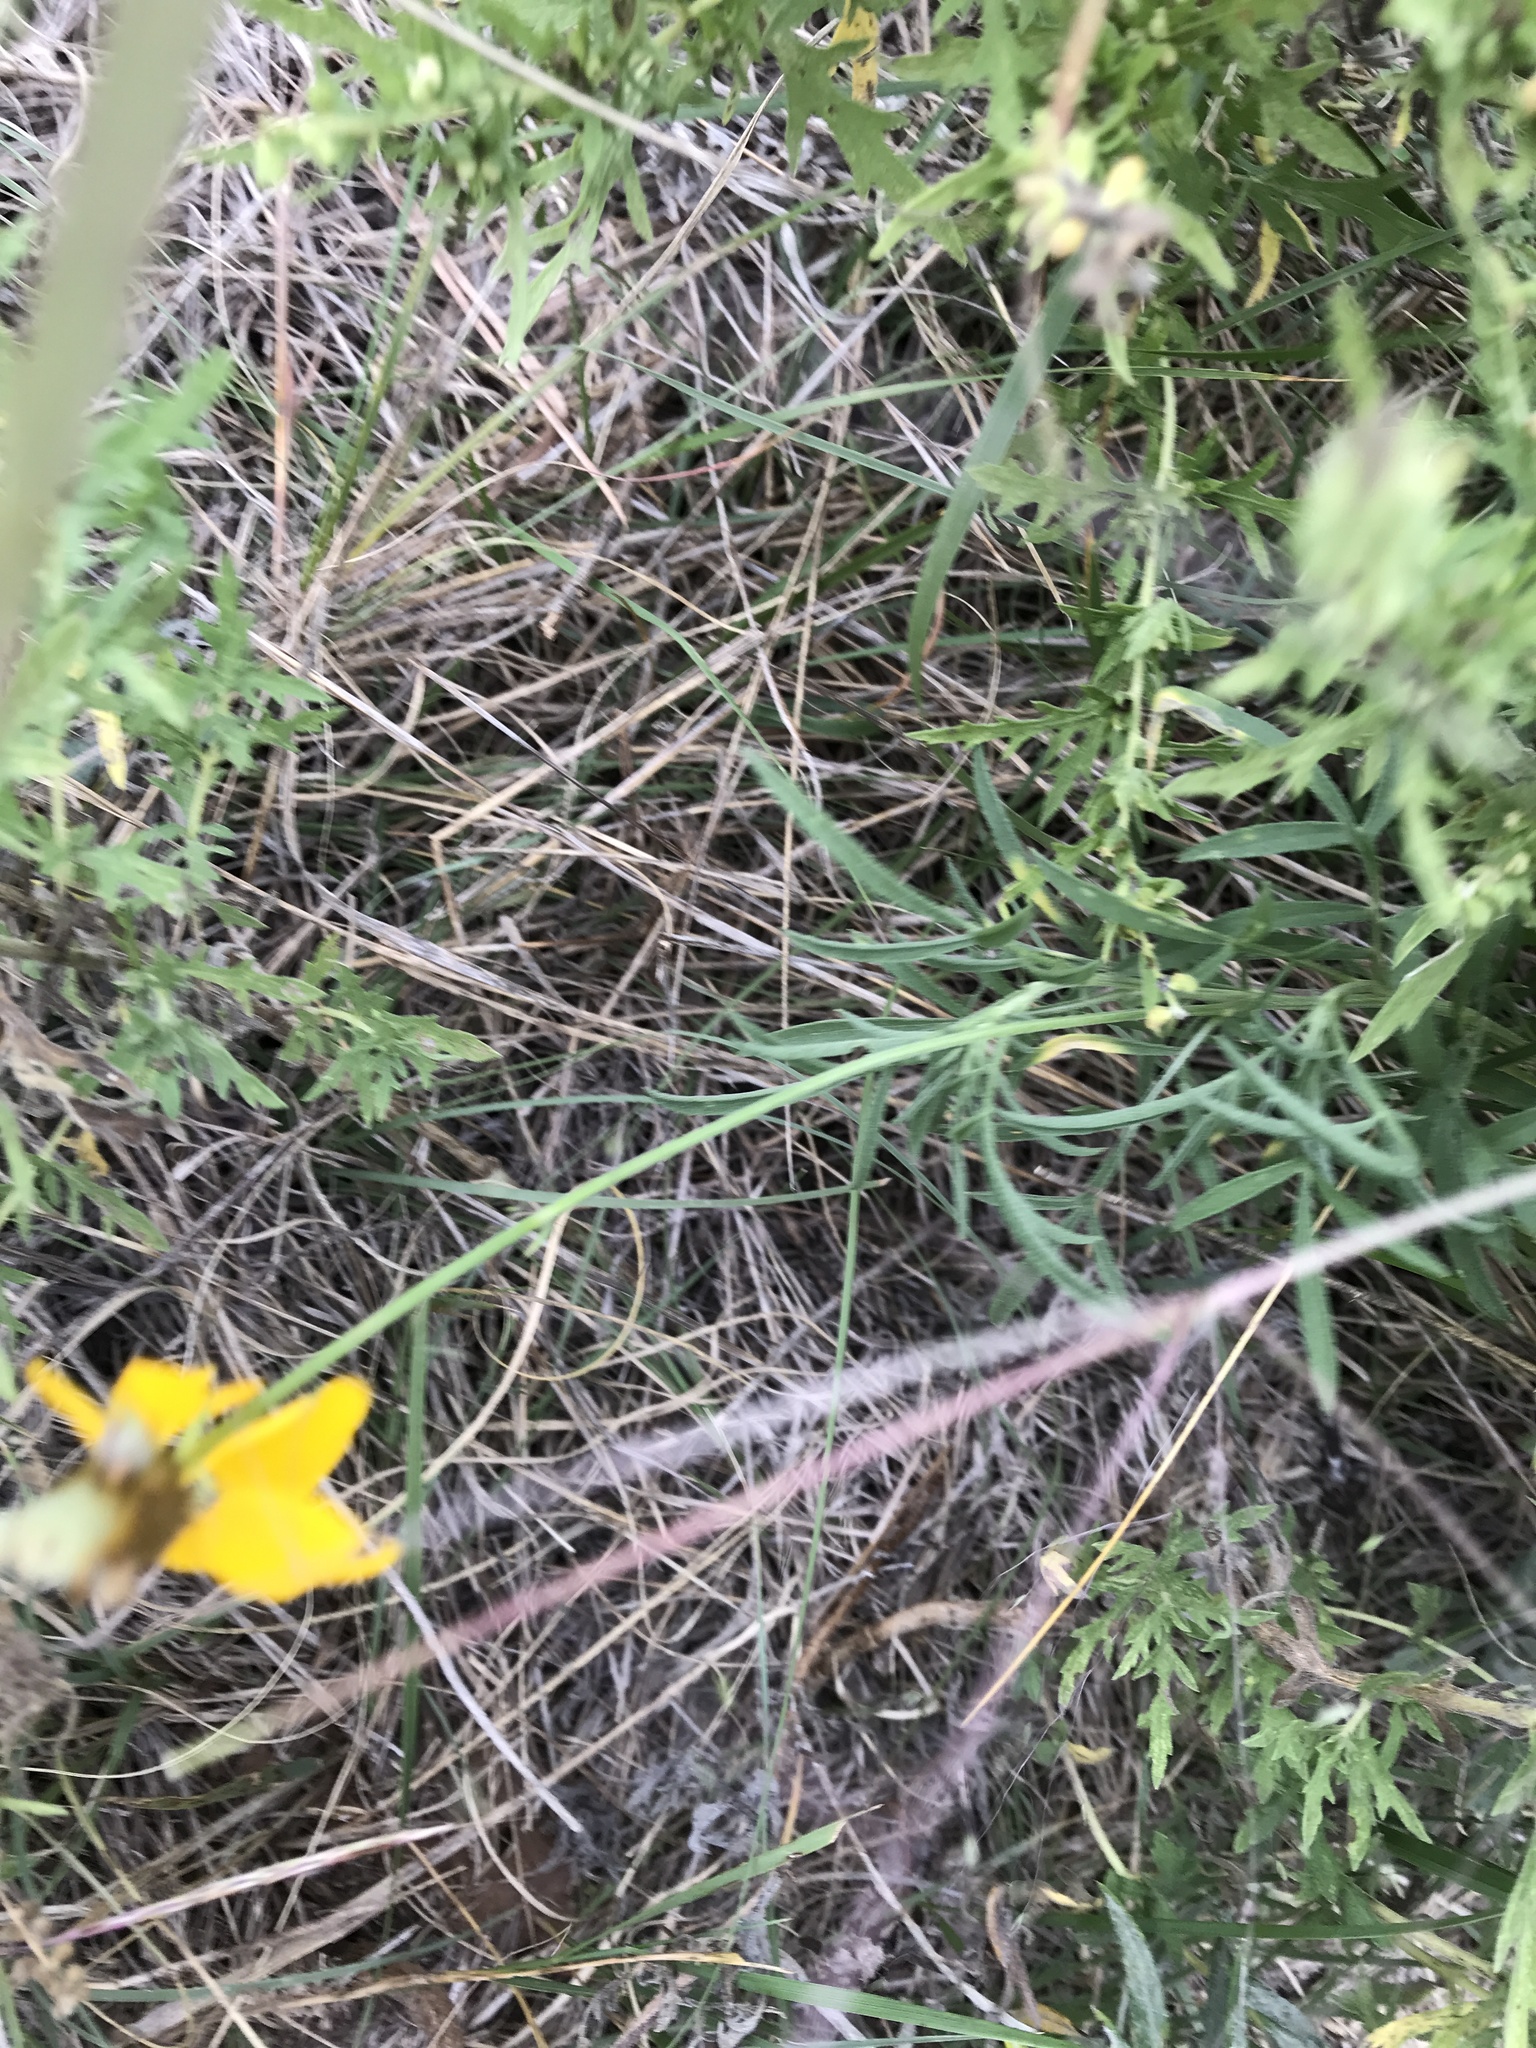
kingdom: Plantae
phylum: Tracheophyta
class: Magnoliopsida
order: Asterales
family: Asteraceae
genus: Ratibida
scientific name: Ratibida columnifera
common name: Prairie coneflower
